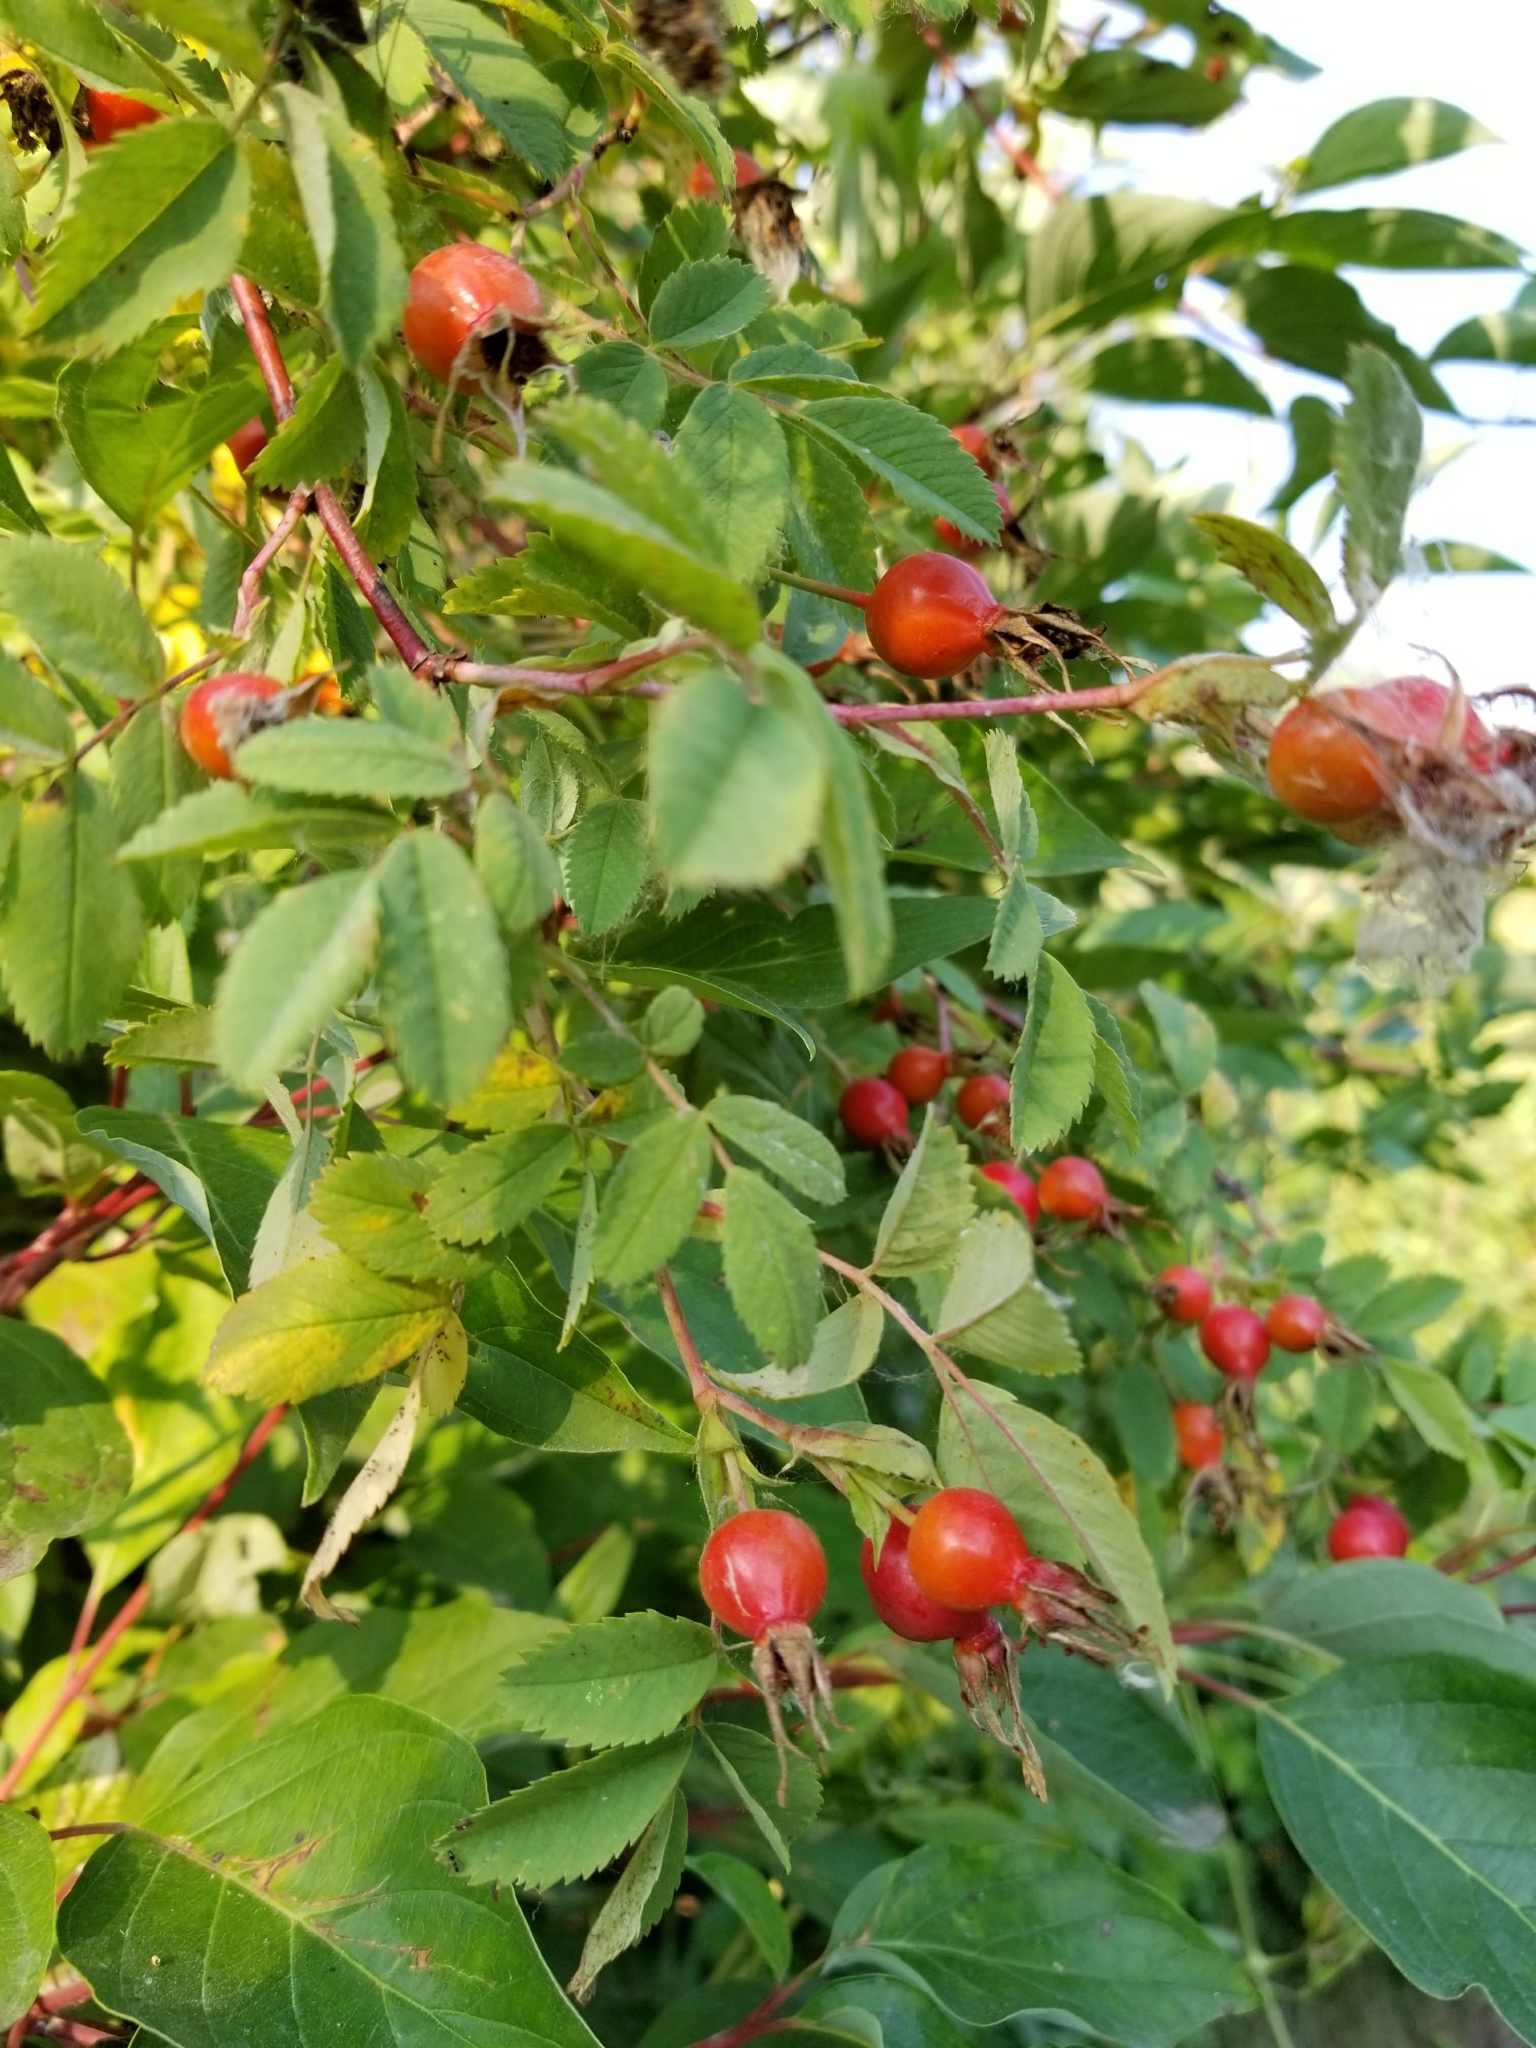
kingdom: Plantae
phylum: Tracheophyta
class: Magnoliopsida
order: Rosales
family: Rosaceae
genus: Rosa
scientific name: Rosa woodsii
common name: Woods's rose
